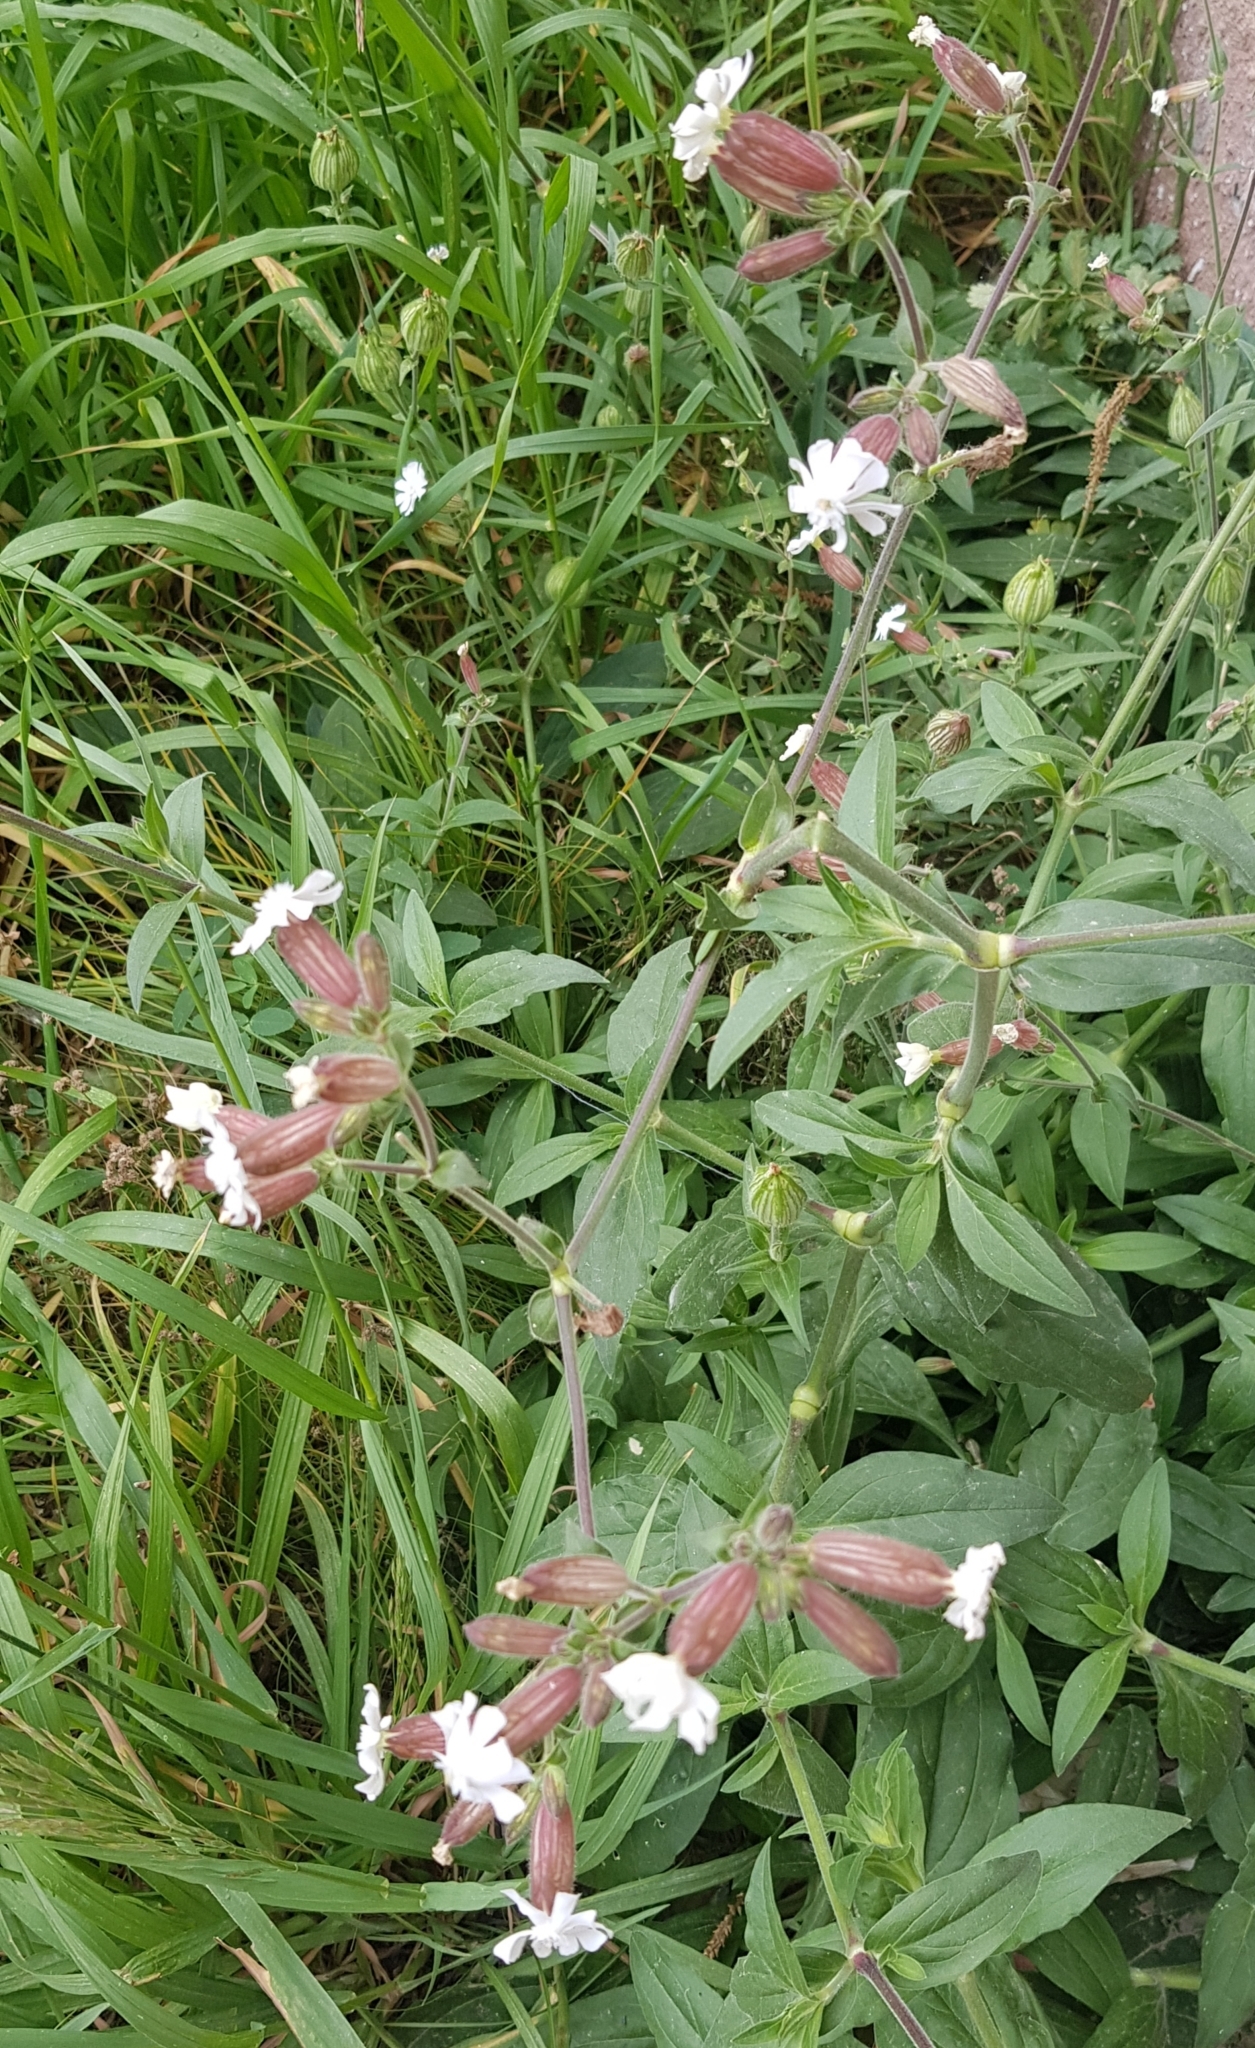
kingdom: Plantae
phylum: Tracheophyta
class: Magnoliopsida
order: Caryophyllales
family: Caryophyllaceae
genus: Silene
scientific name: Silene latifolia
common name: White campion
